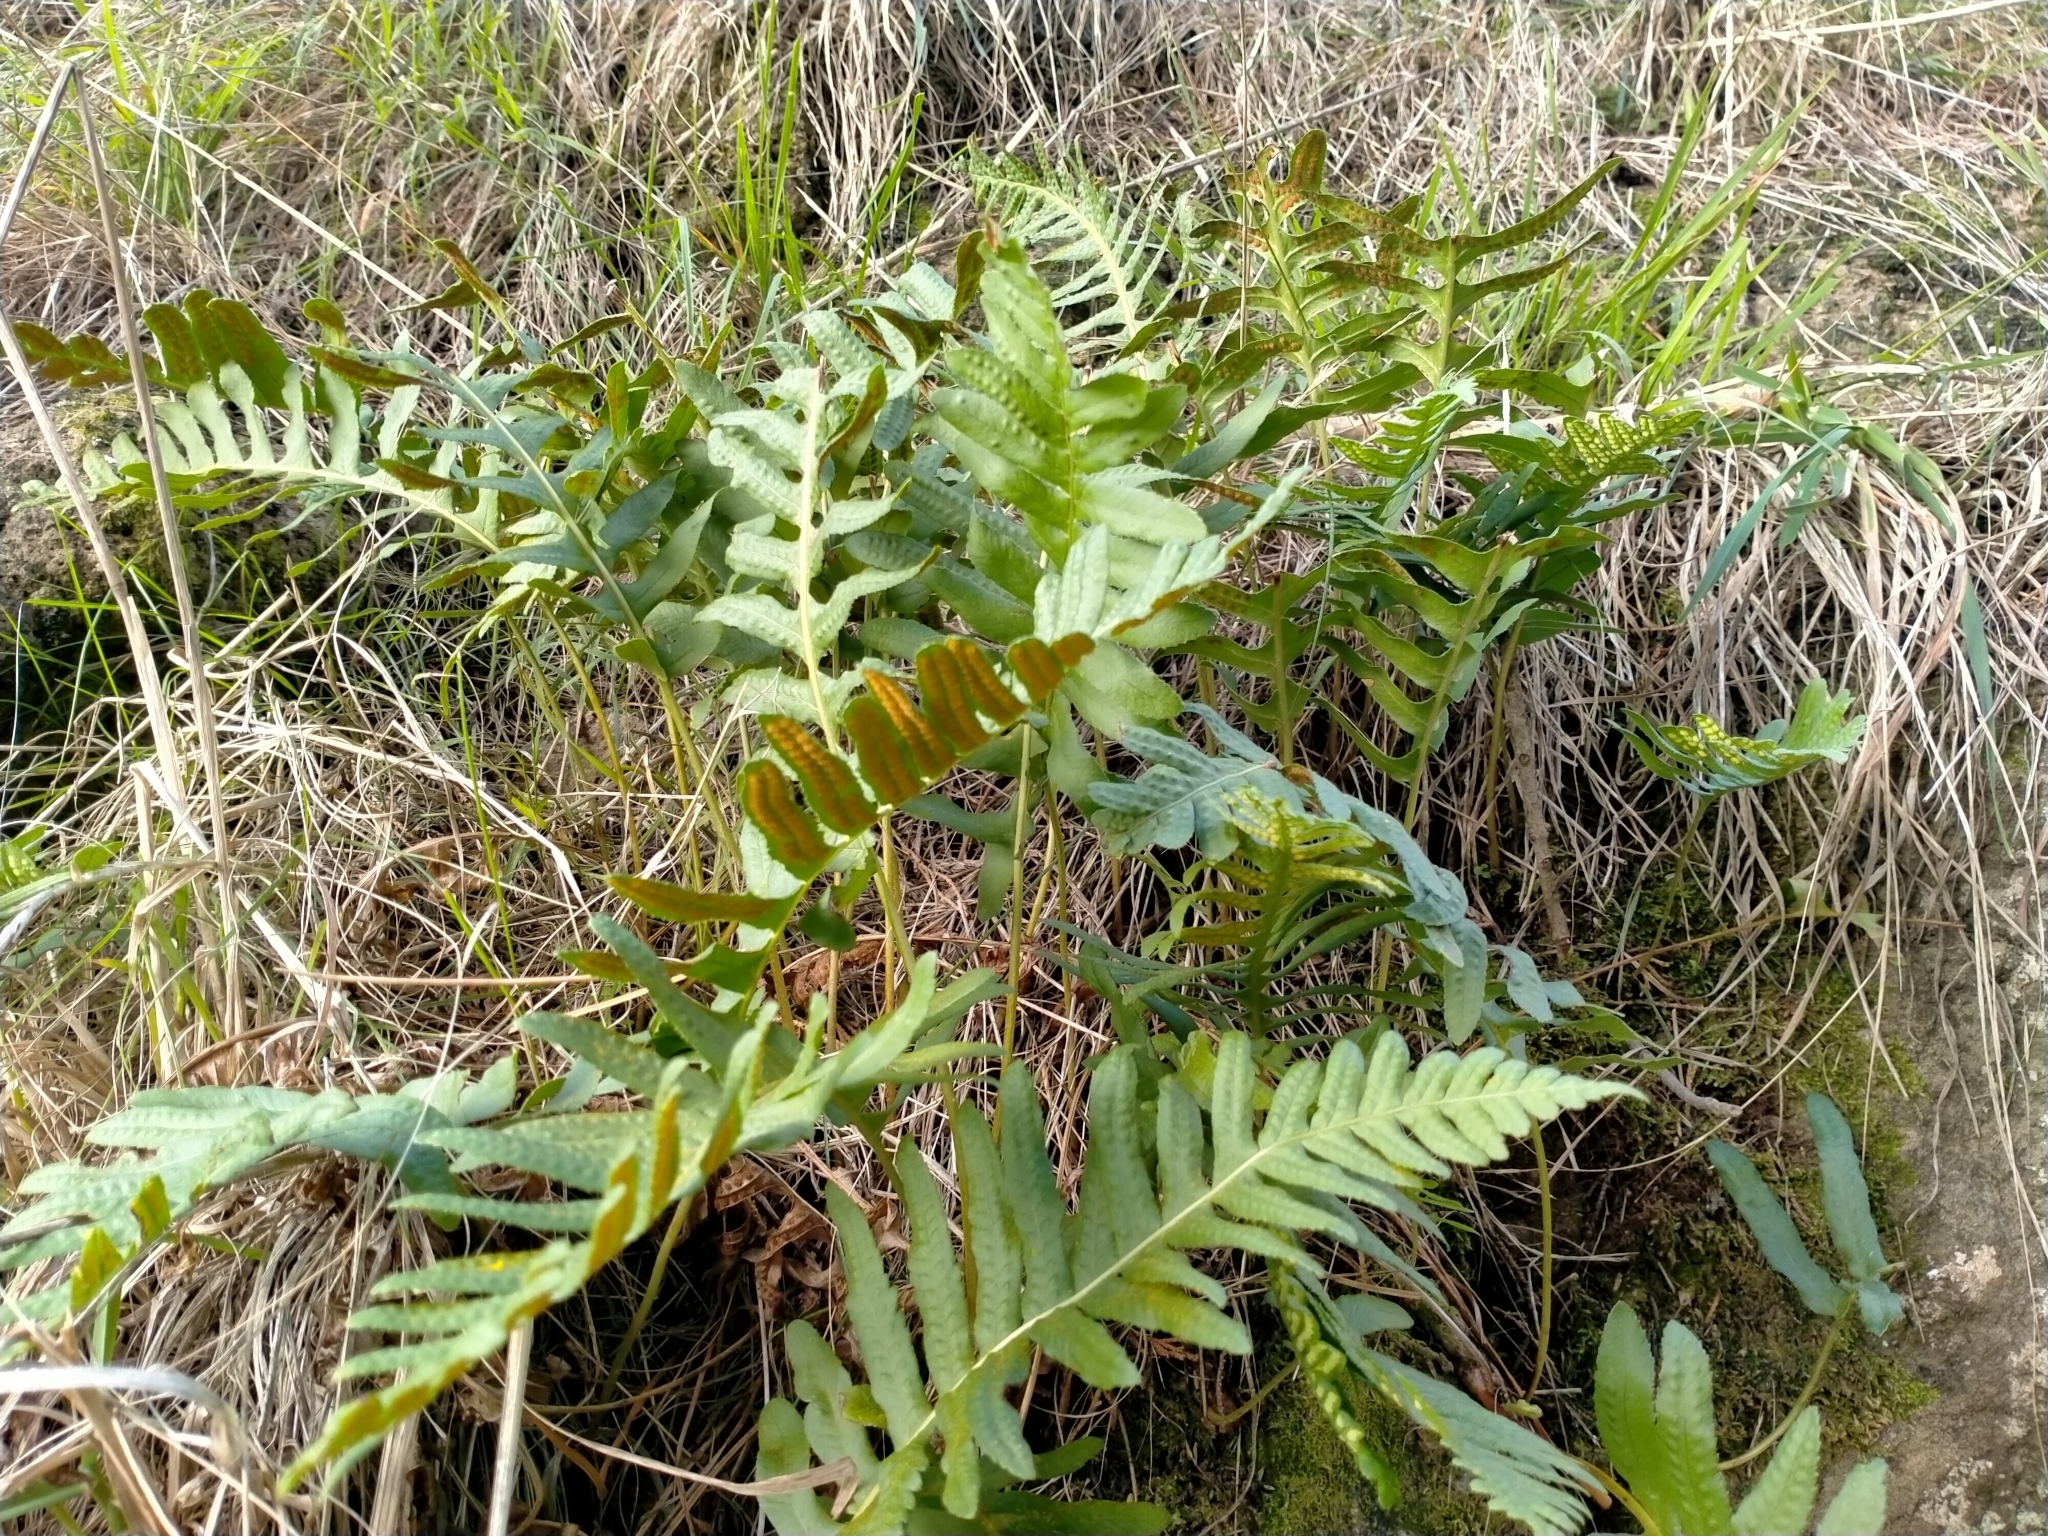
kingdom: Plantae
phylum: Tracheophyta
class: Polypodiopsida
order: Polypodiales
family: Polypodiaceae
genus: Polypodium
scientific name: Polypodium vulgare
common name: Common polypody
